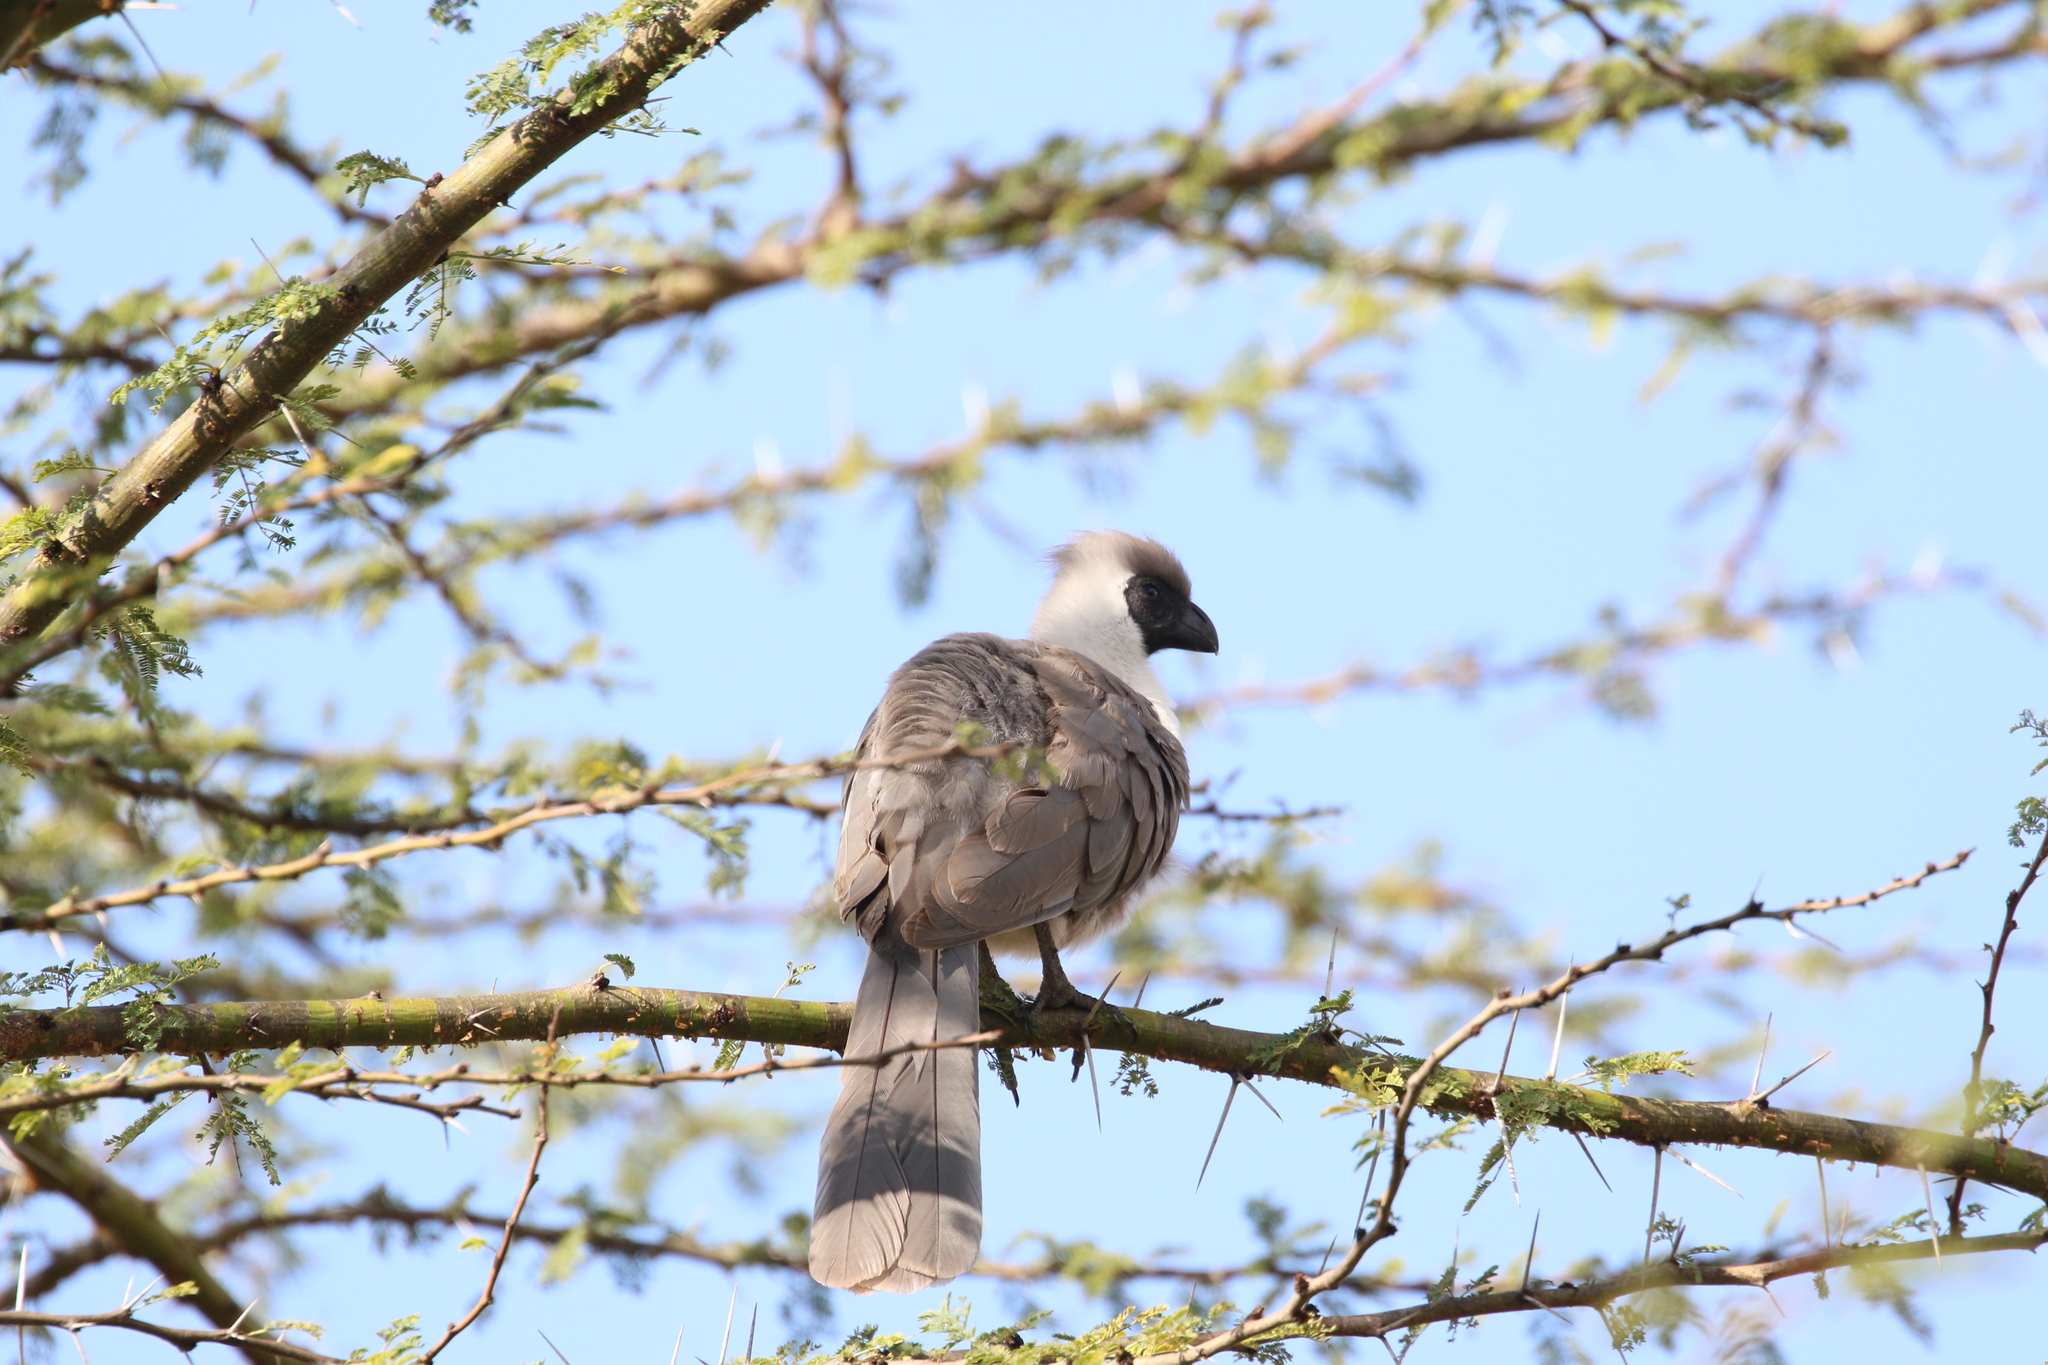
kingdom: Animalia
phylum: Chordata
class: Aves
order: Musophagiformes
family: Musophagidae
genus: Corythaixoides
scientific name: Corythaixoides personatus
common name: Bare-faced go-away-bird
